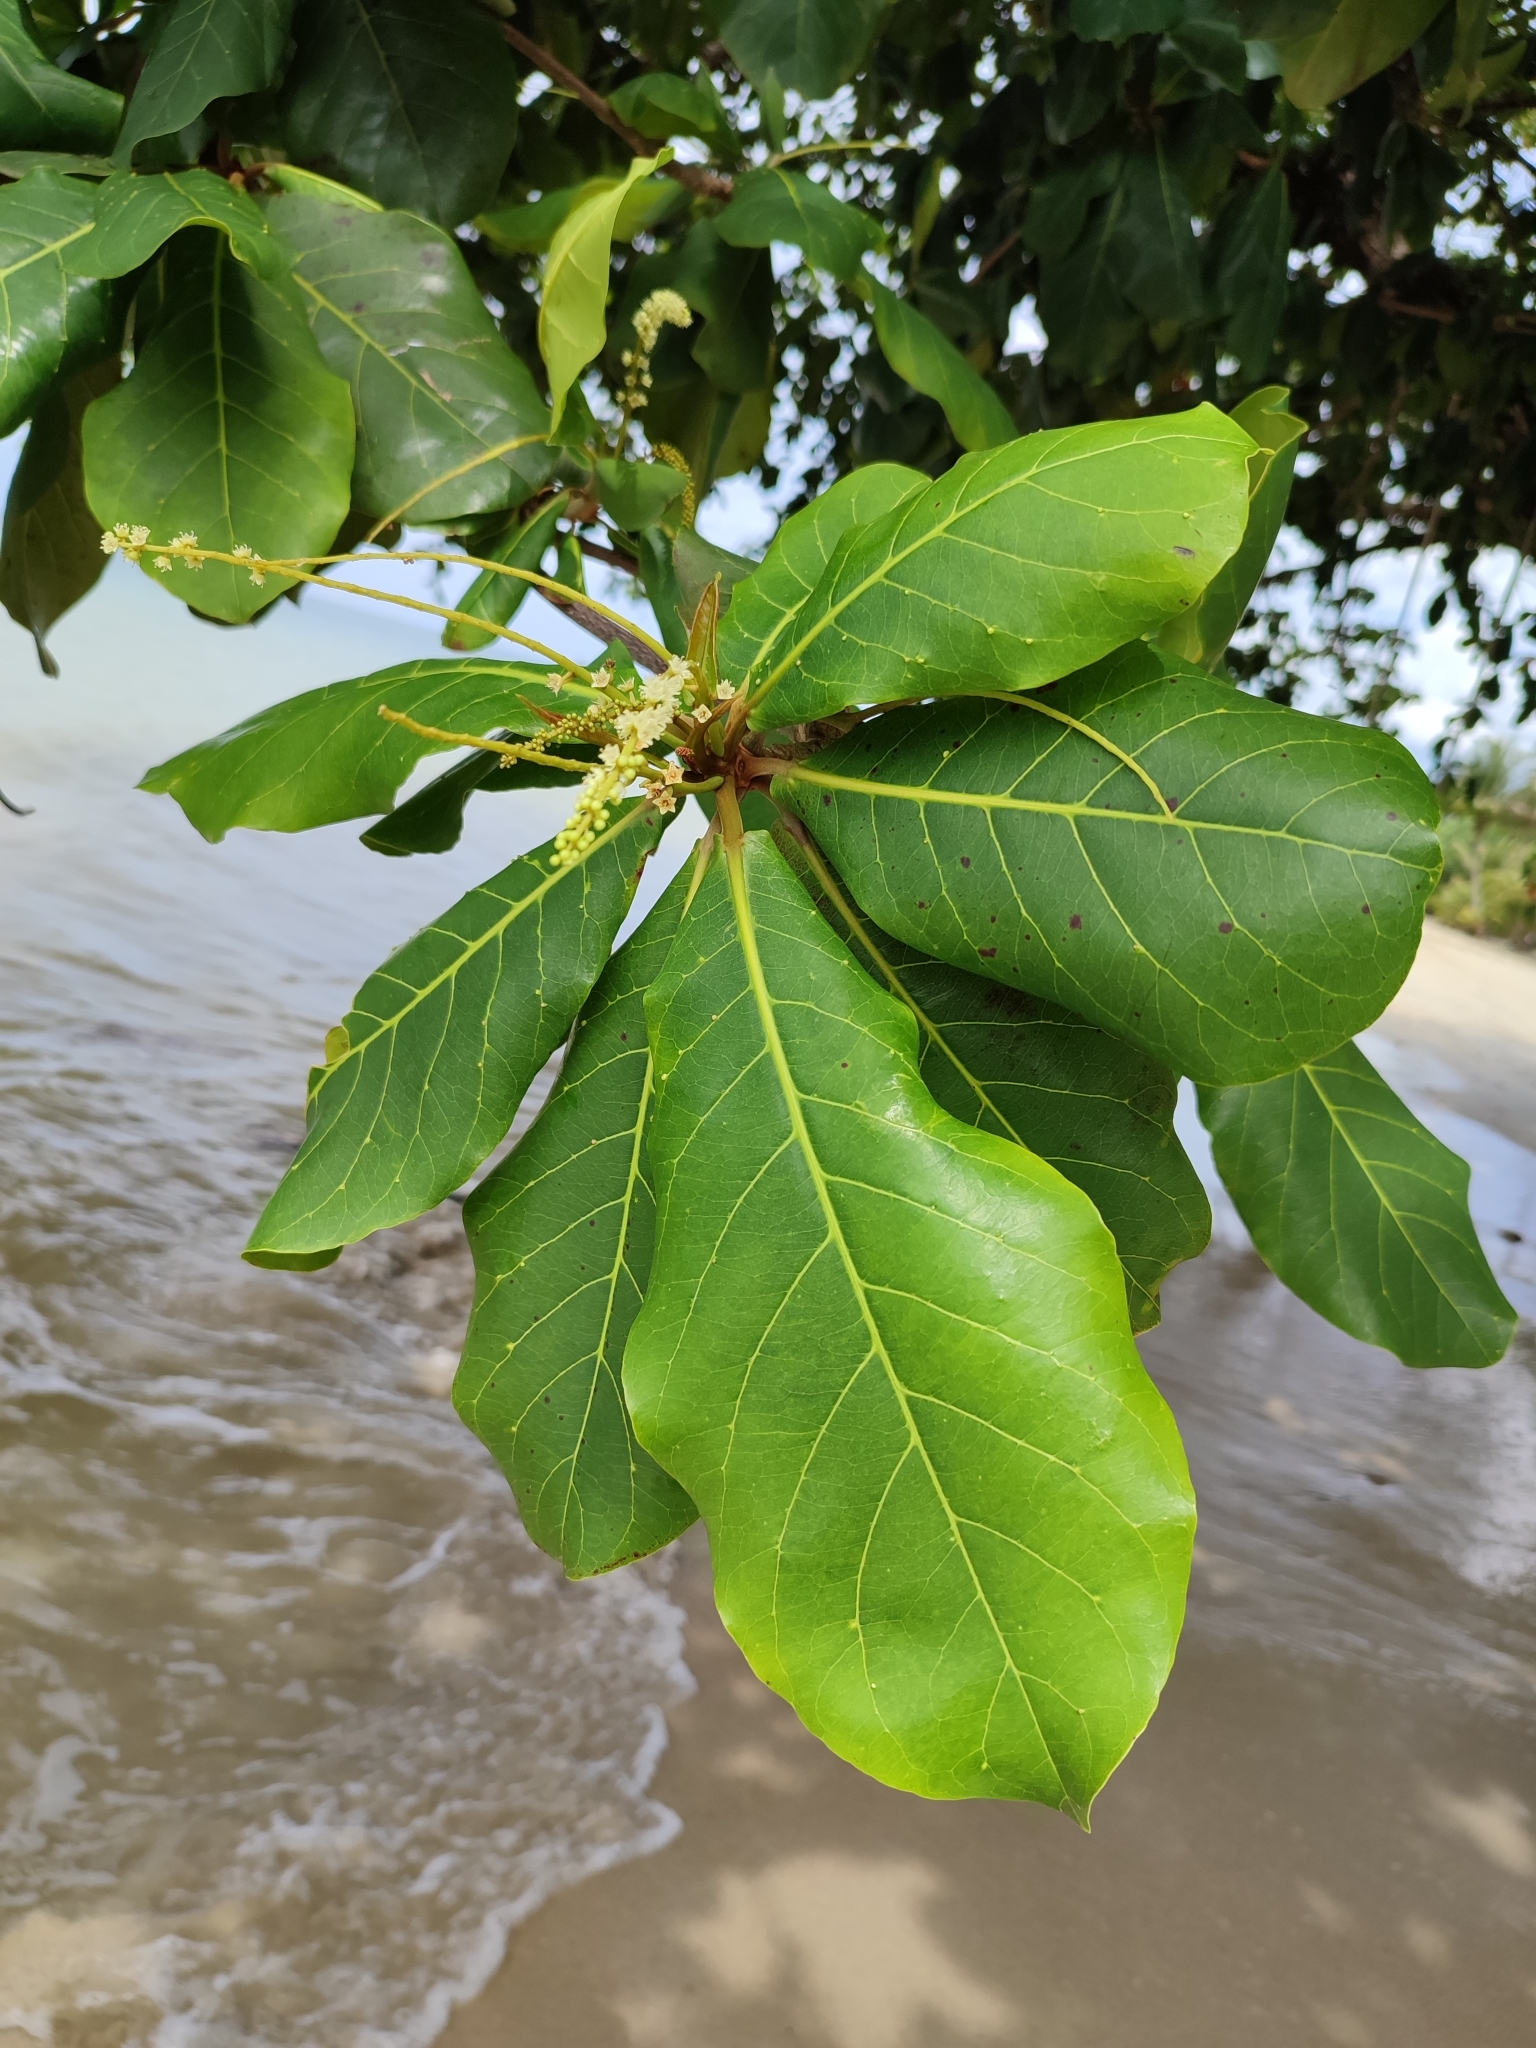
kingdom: Plantae
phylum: Tracheophyta
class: Magnoliopsida
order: Myrtales
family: Combretaceae
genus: Terminalia
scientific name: Terminalia catappa
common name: Tropical almond
